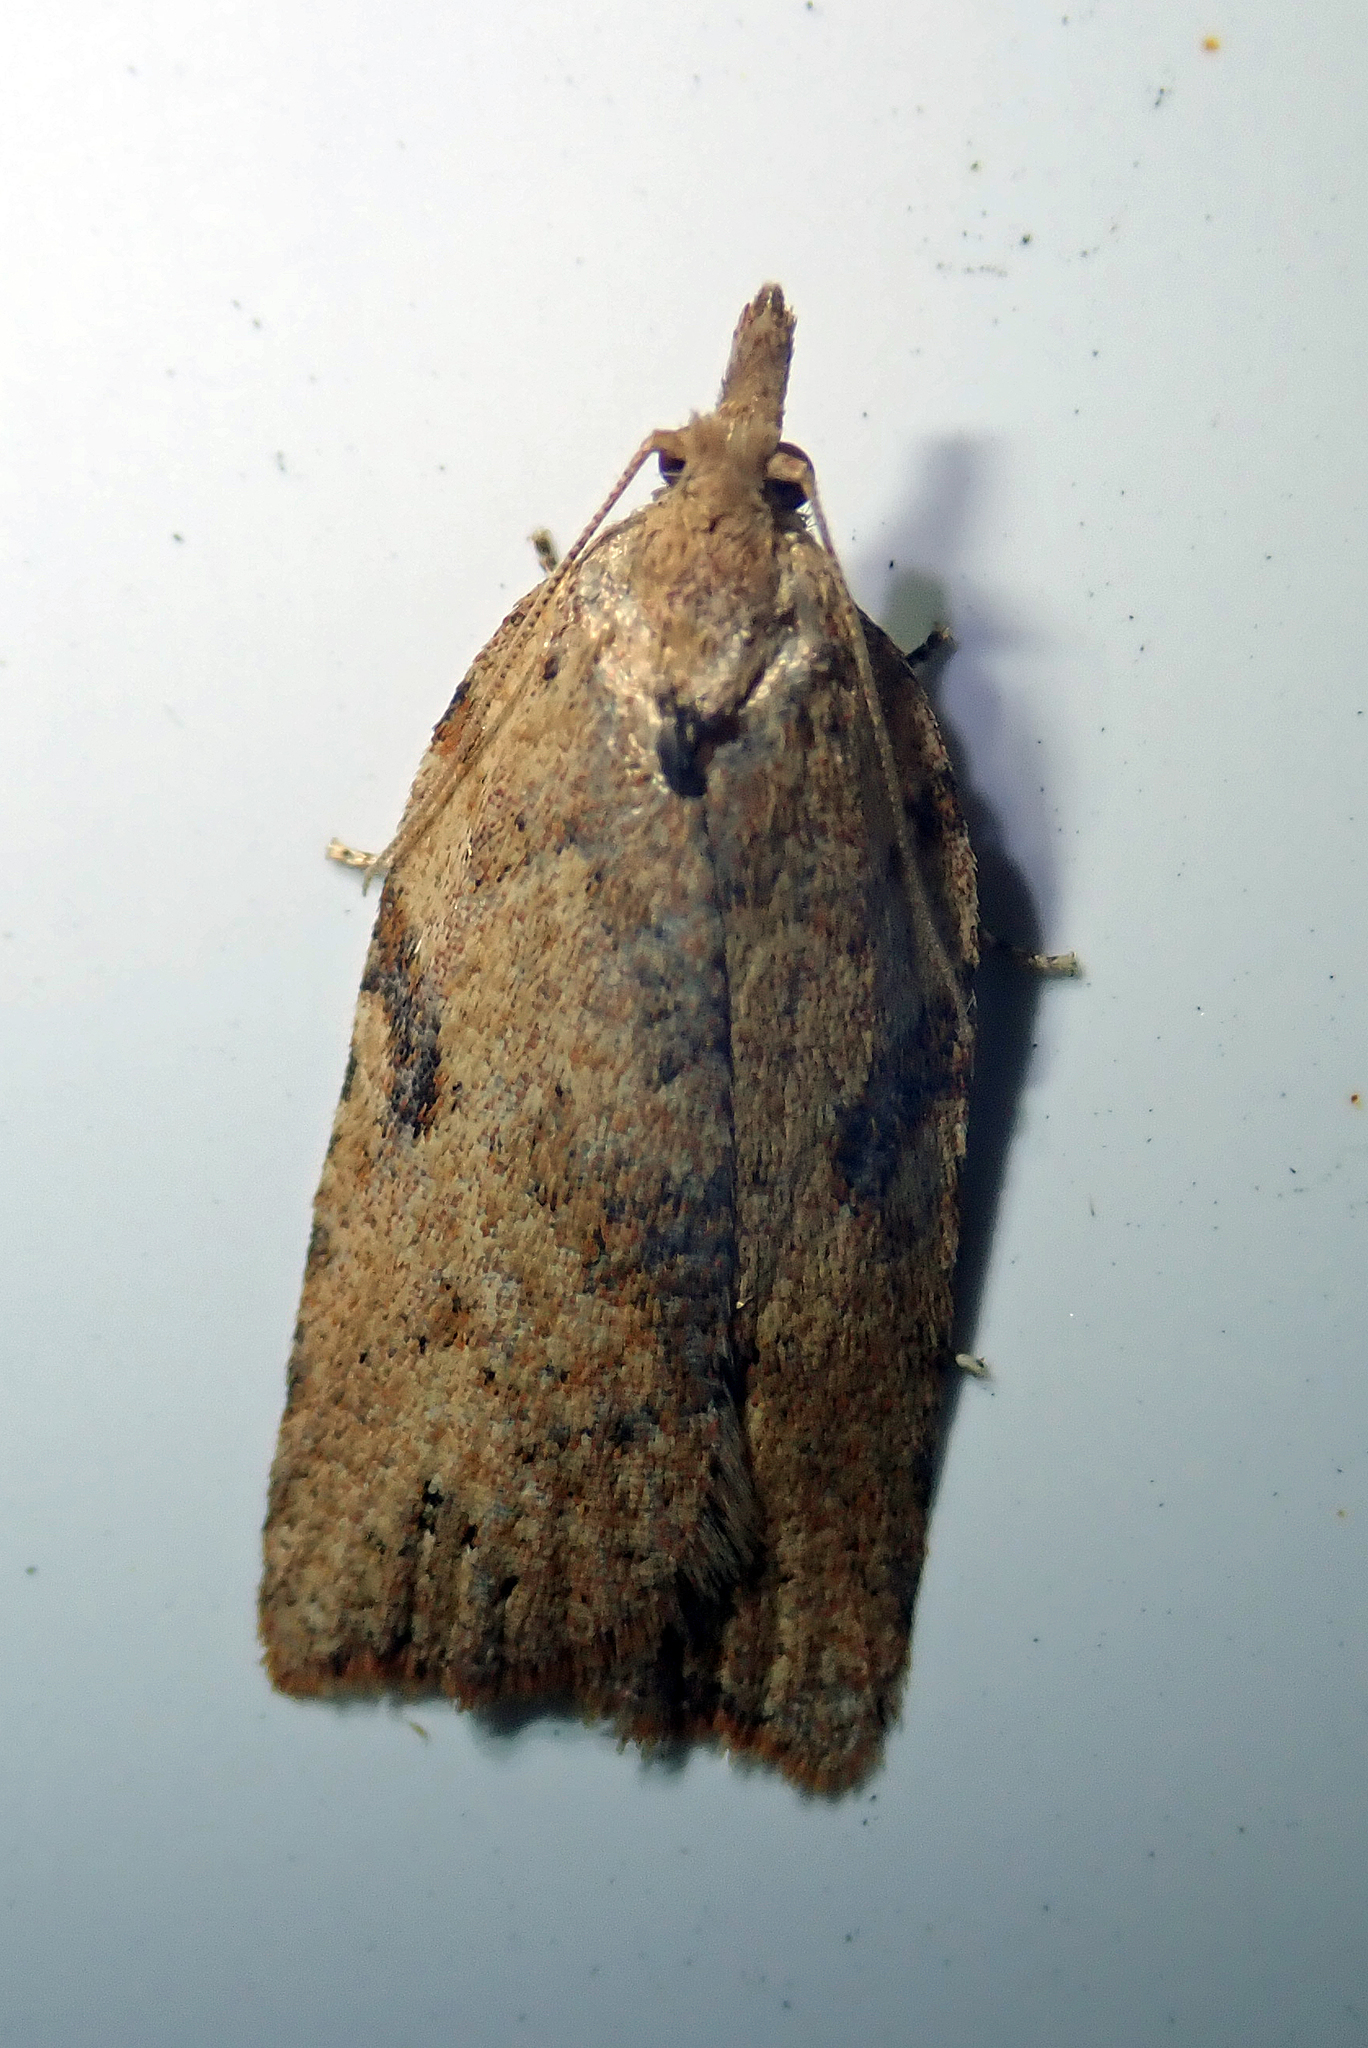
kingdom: Animalia
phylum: Arthropoda
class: Insecta
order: Lepidoptera
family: Tortricidae
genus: Ctenopseustis
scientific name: Ctenopseustis obliquana
